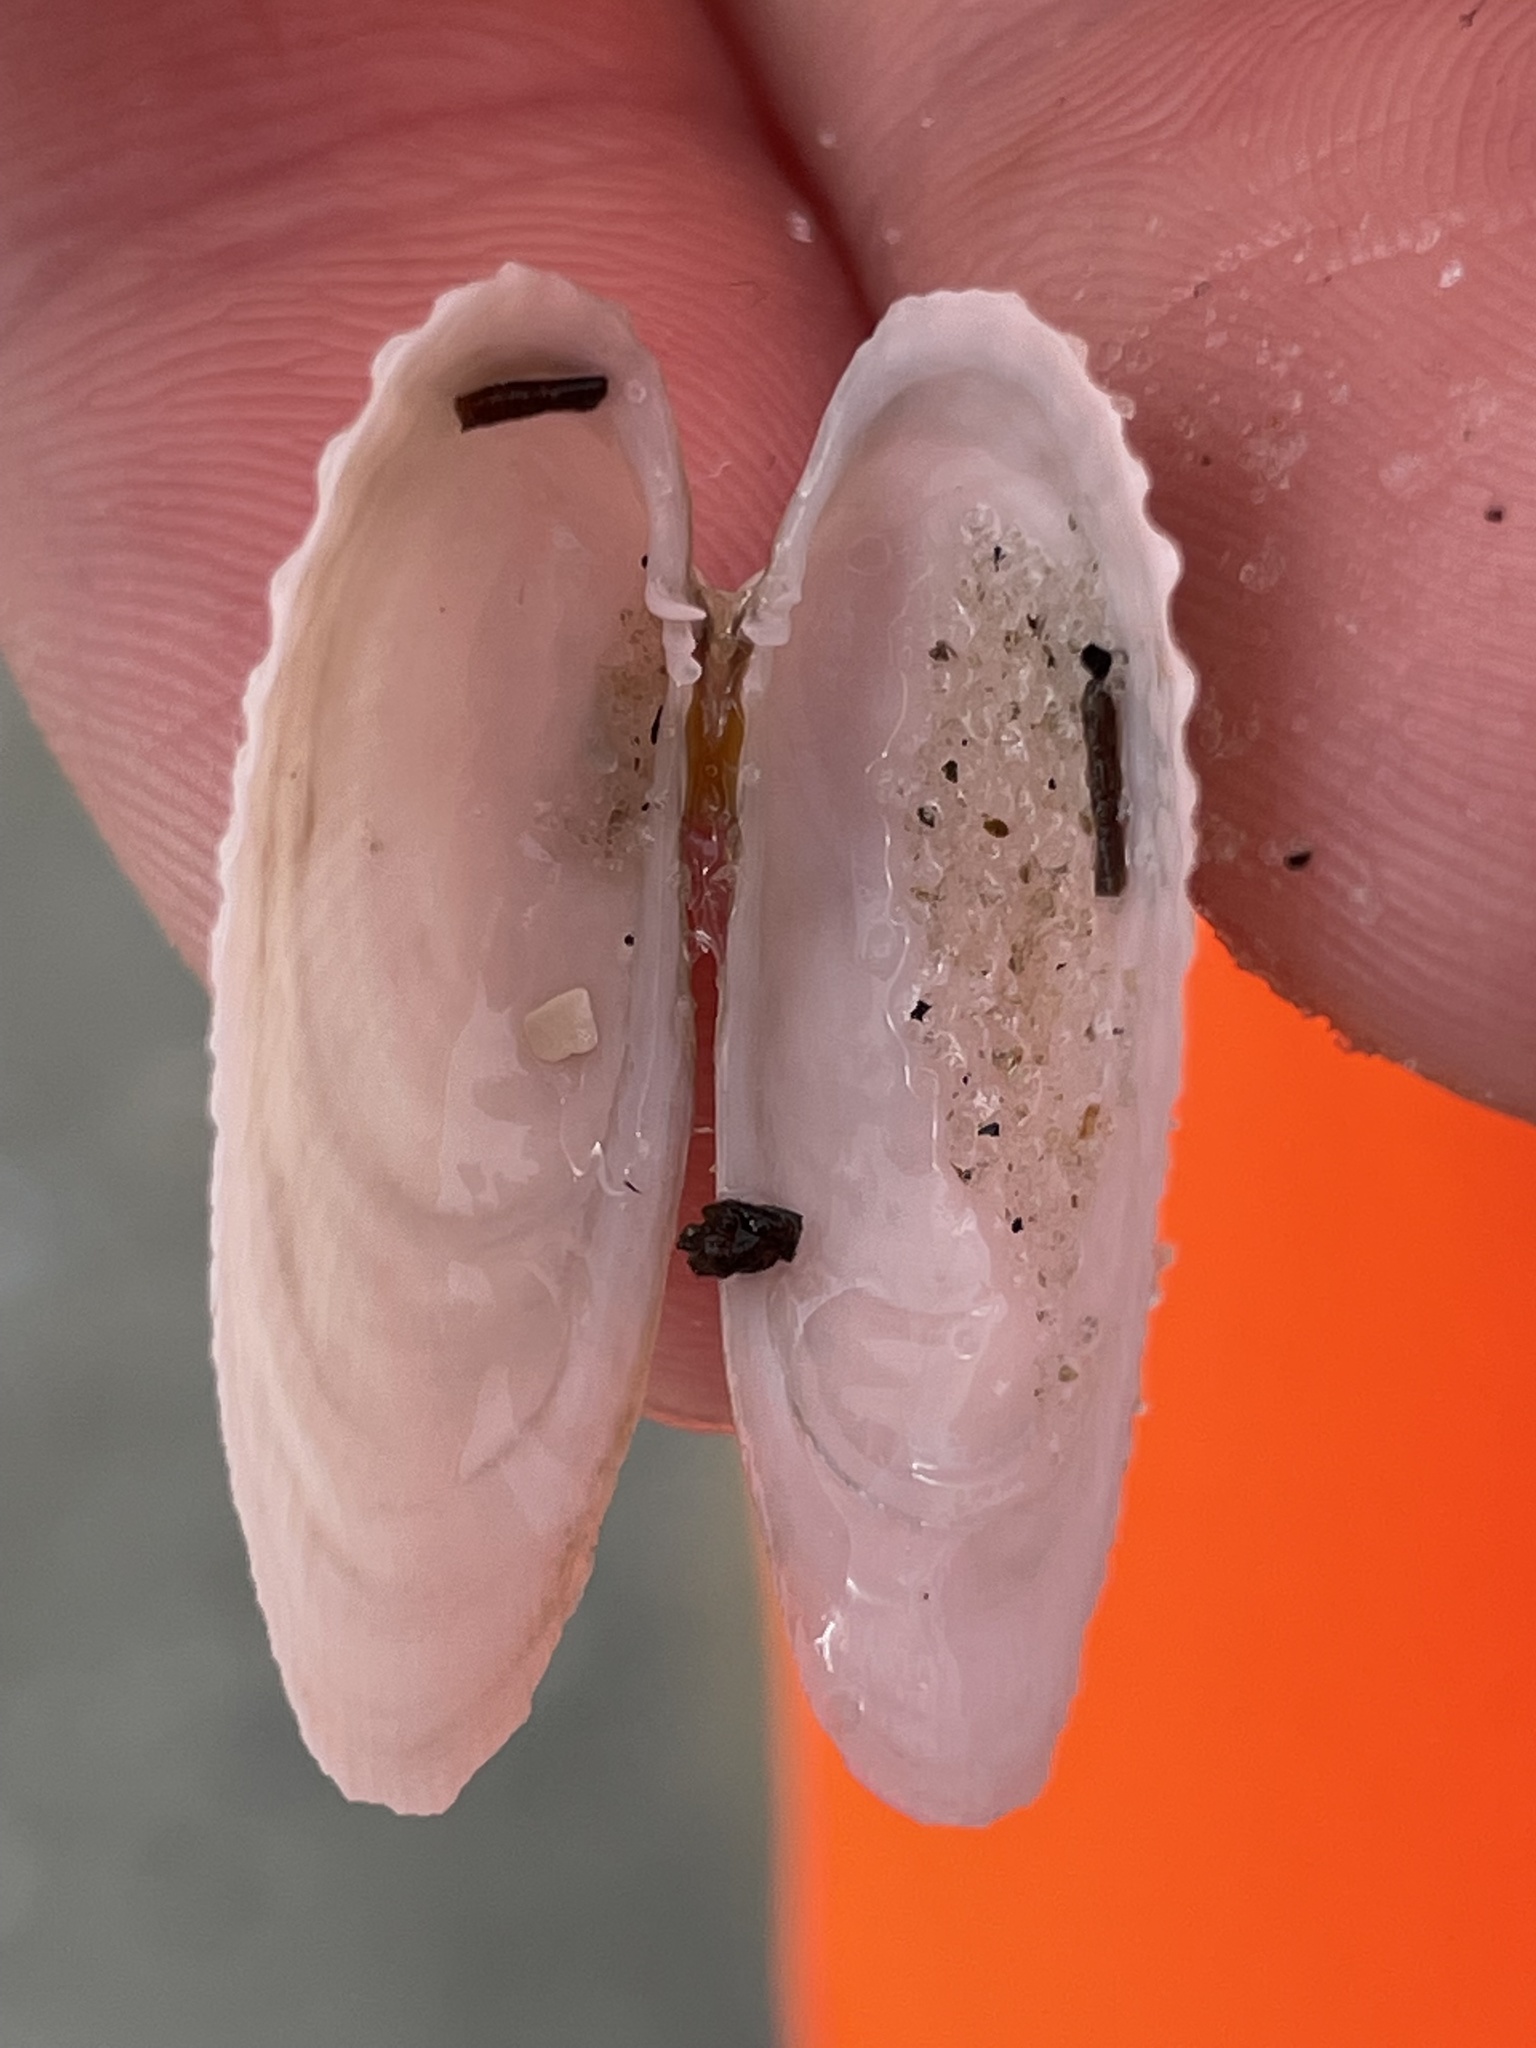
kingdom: Animalia
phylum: Mollusca
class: Bivalvia
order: Venerida
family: Veneridae
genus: Petricolaria
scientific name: Petricolaria pholadiformis
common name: American piddock
